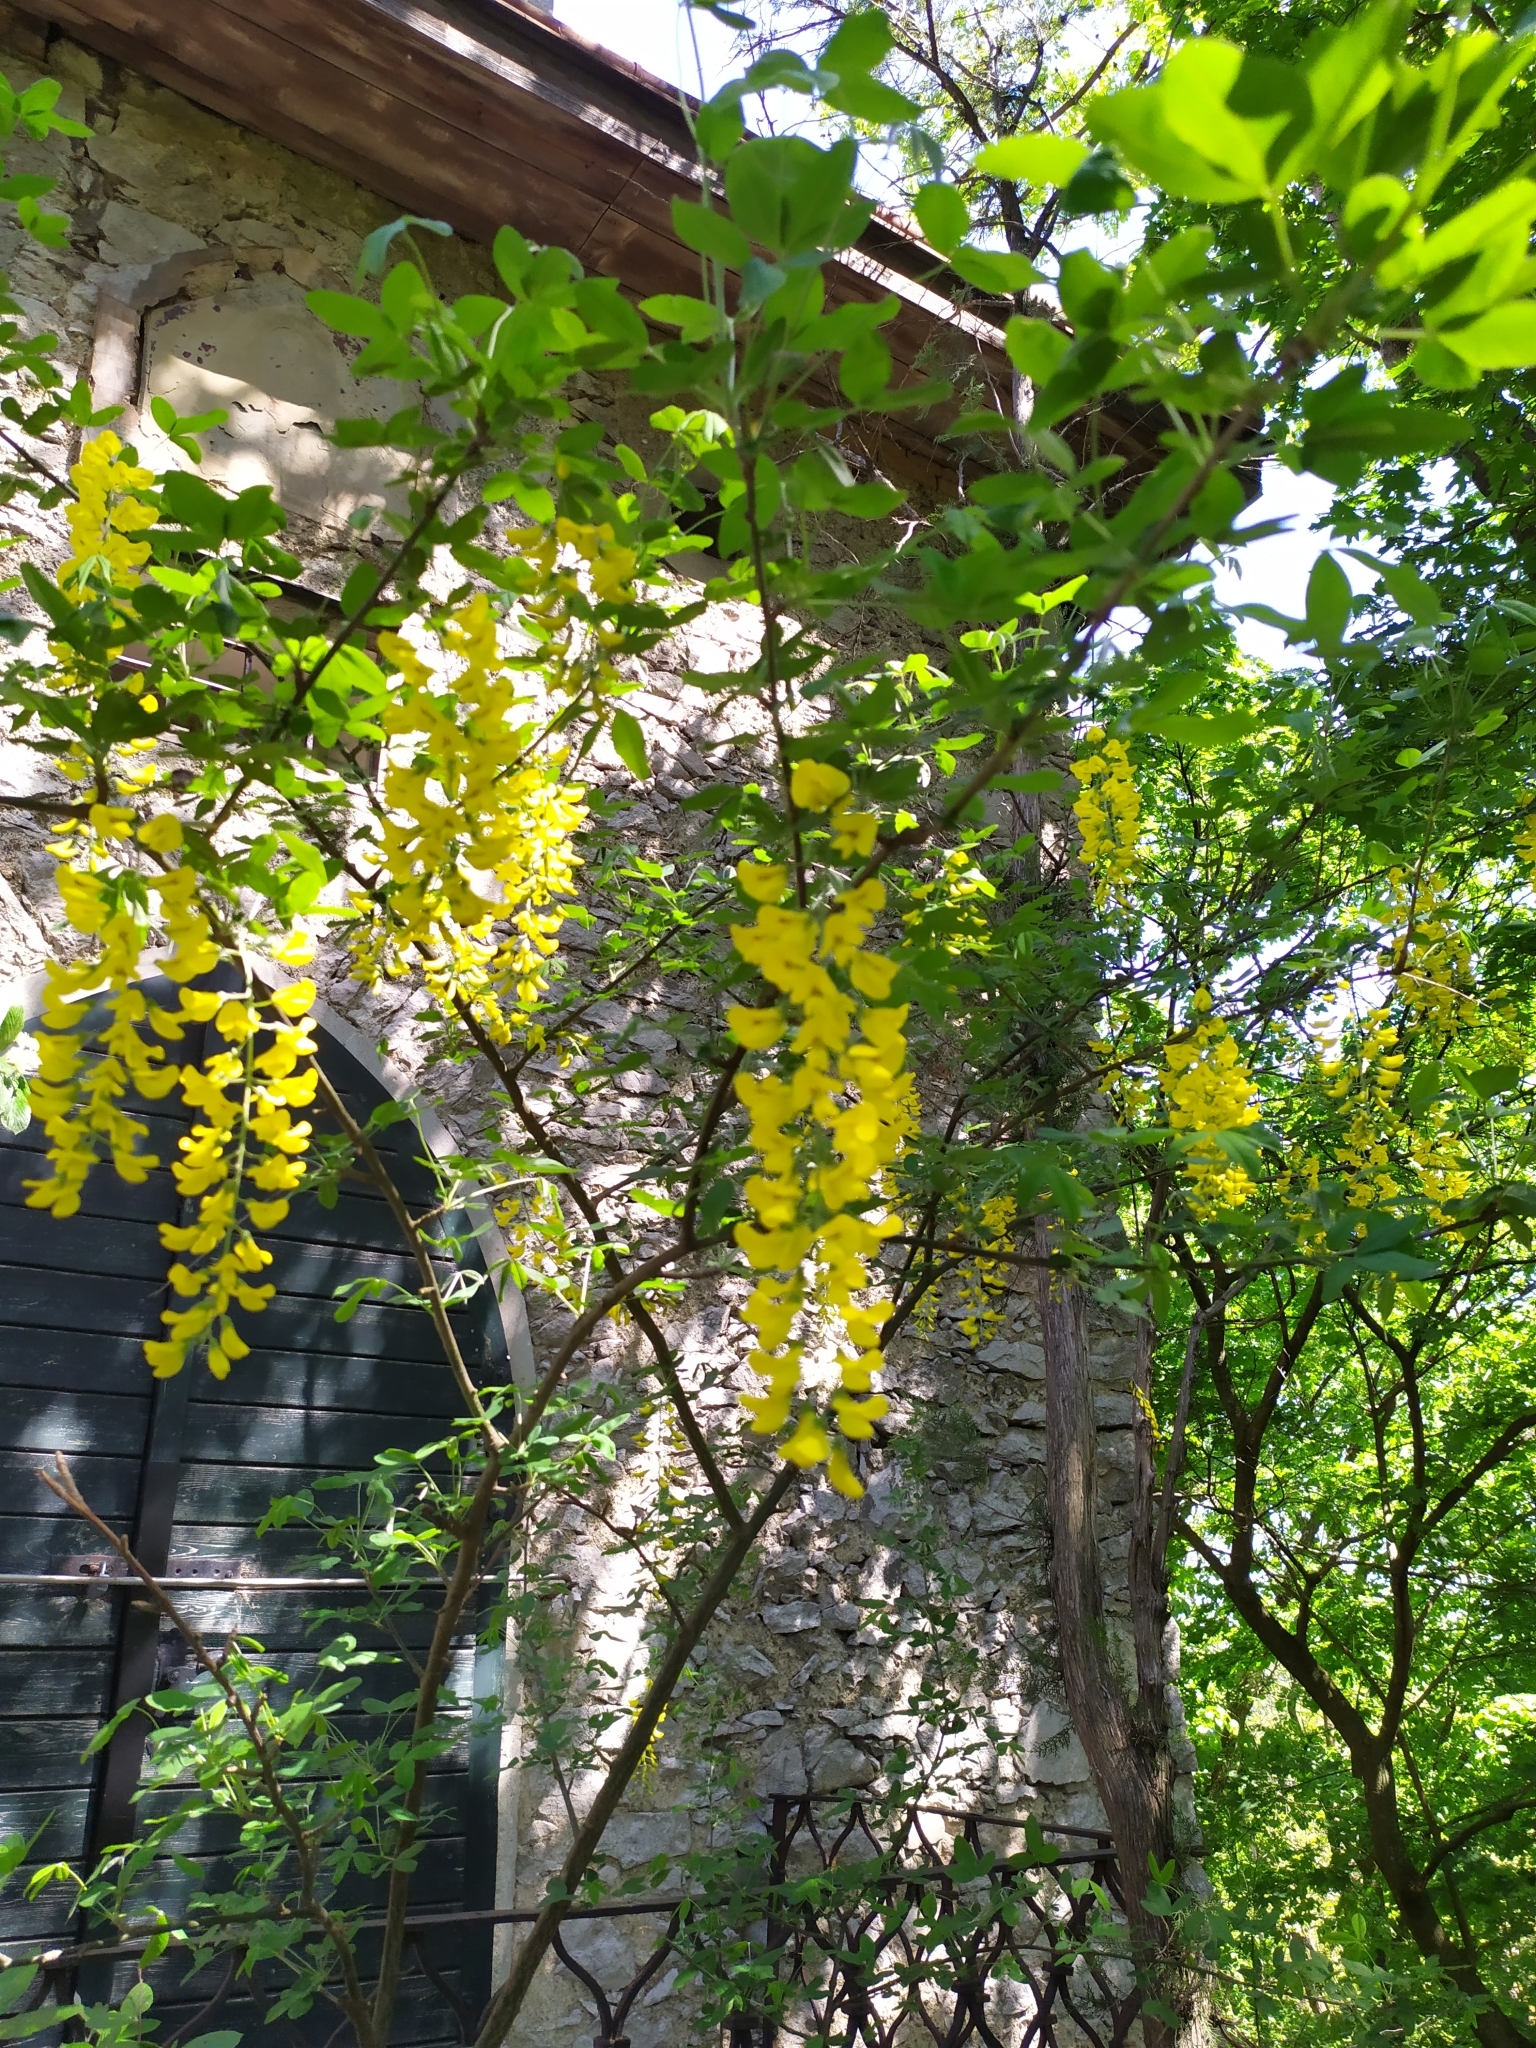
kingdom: Plantae
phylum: Tracheophyta
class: Magnoliopsida
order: Fabales
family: Fabaceae
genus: Laburnum
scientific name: Laburnum anagyroides
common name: Laburnum
